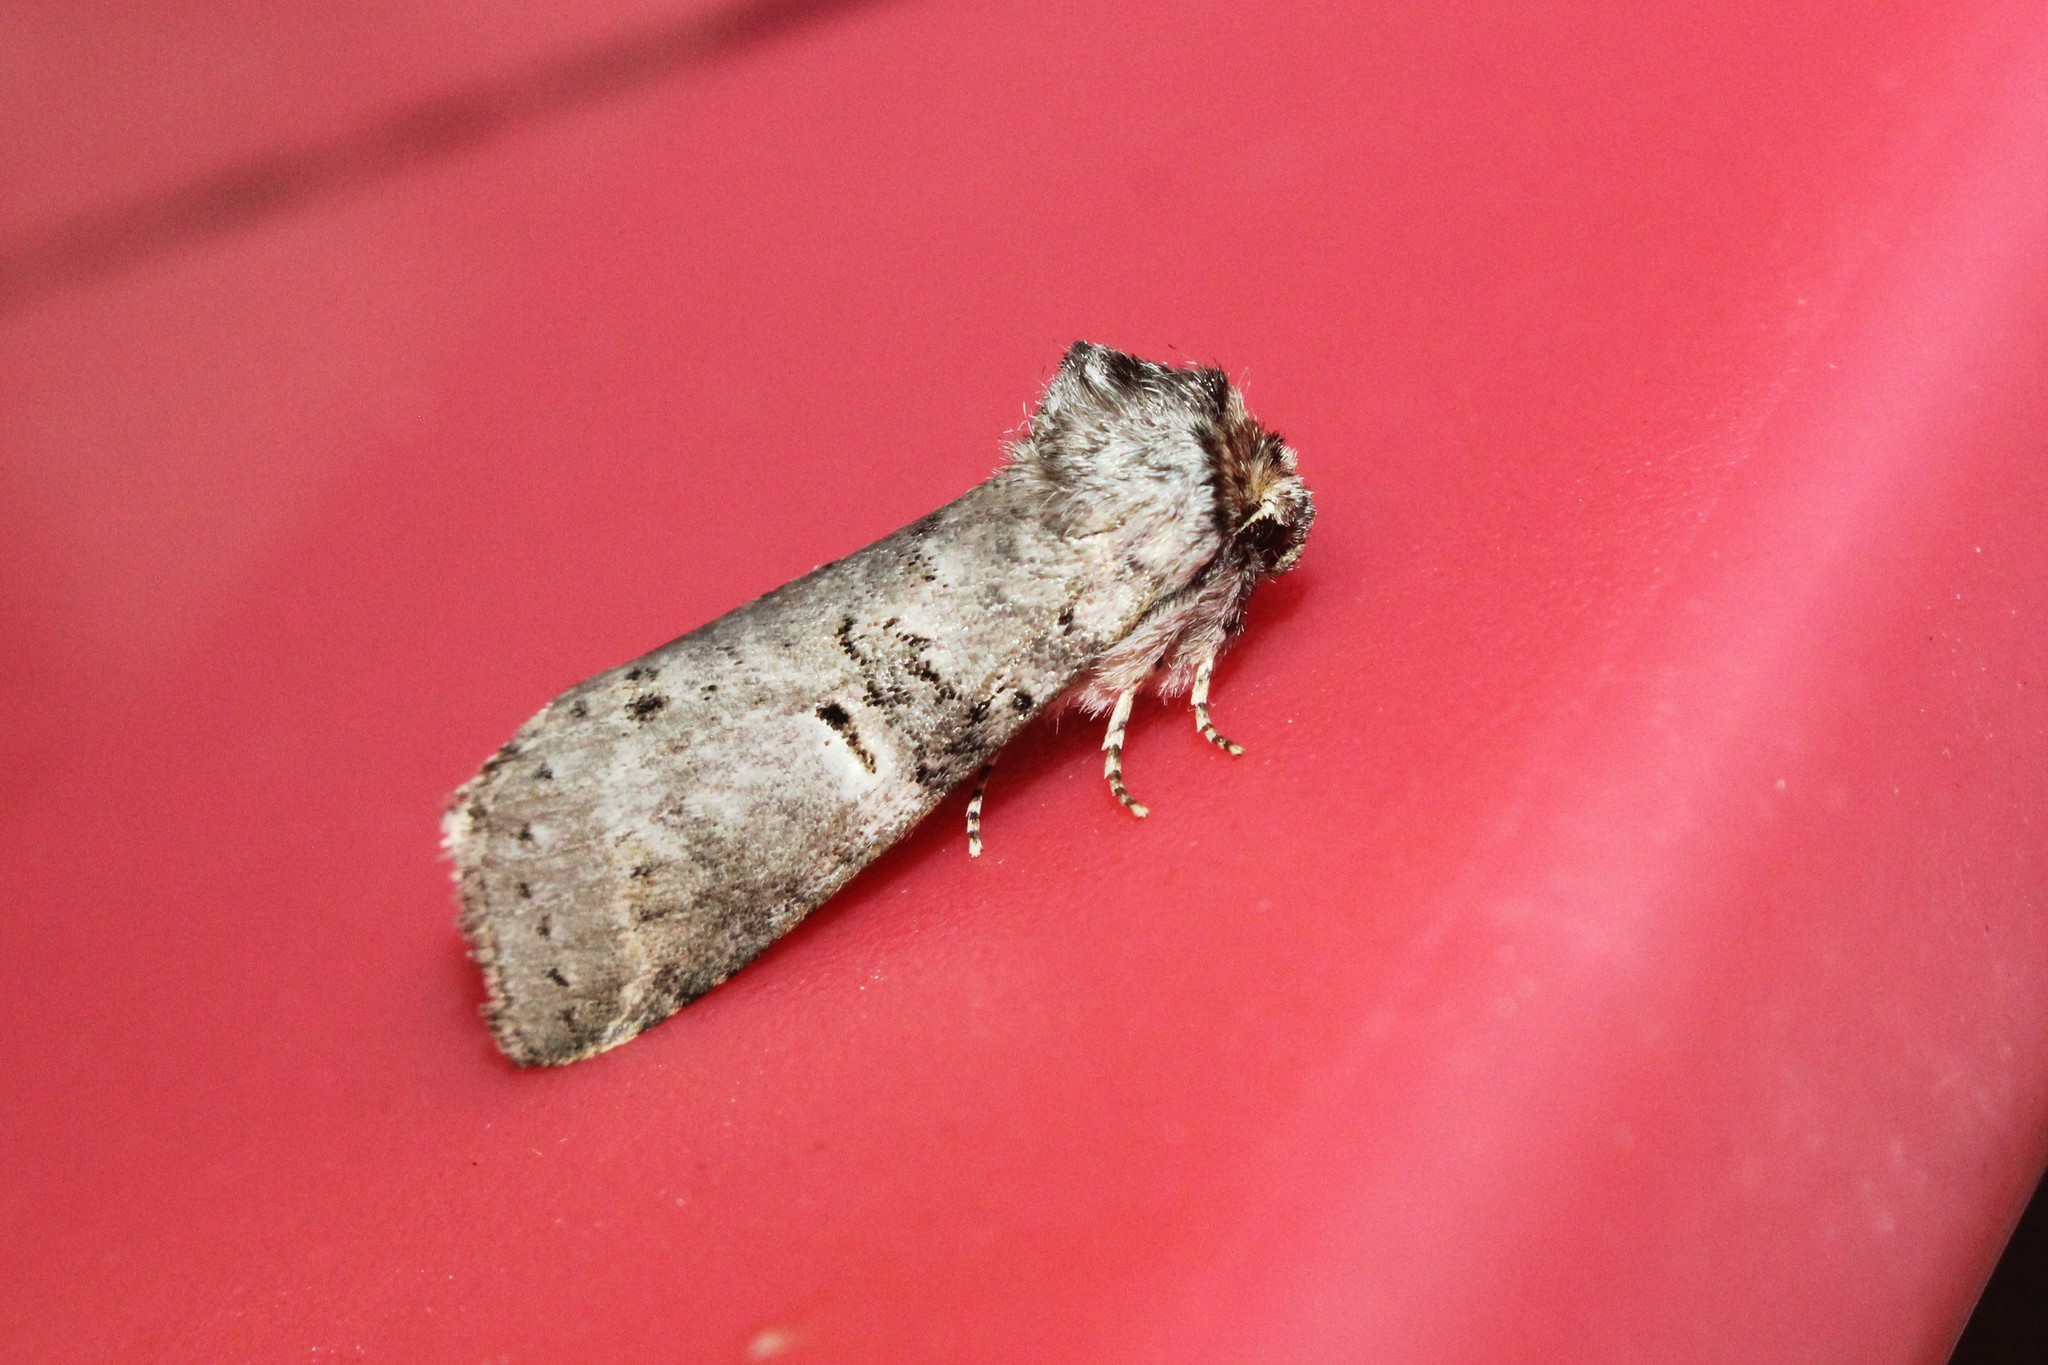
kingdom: Animalia
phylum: Arthropoda
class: Insecta
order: Lepidoptera
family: Notodontidae
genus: Ellida
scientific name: Ellida caniplaga
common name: Linden prominent
